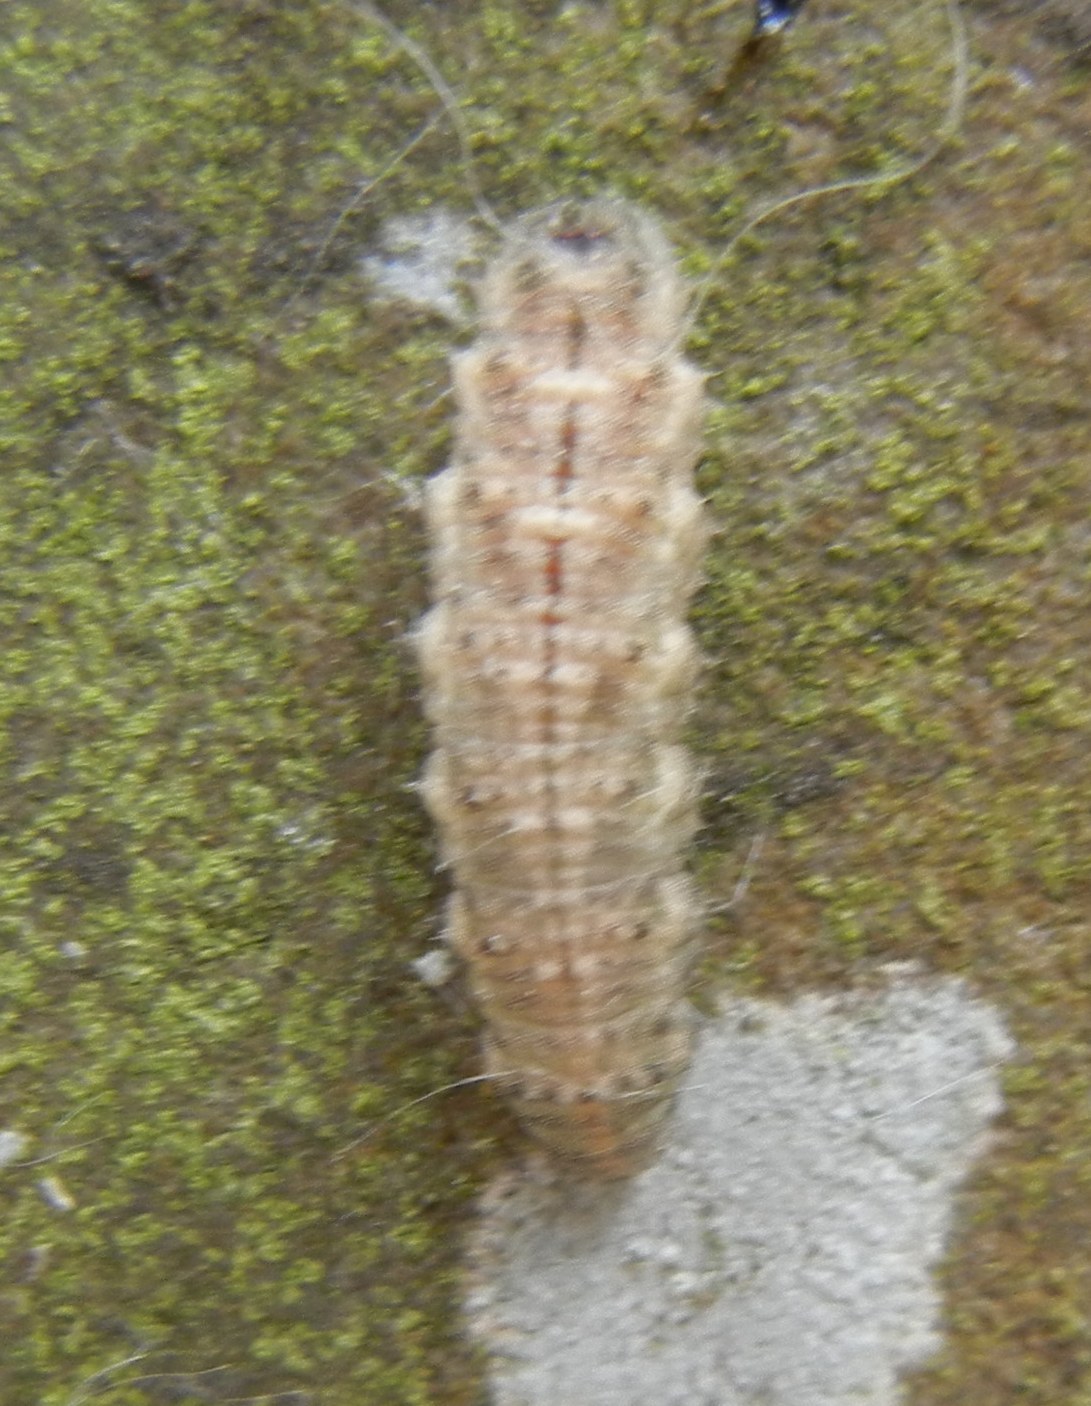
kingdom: Animalia
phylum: Arthropoda
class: Insecta
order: Diptera
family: Syrphidae
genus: Eupeodes
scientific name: Eupeodes
